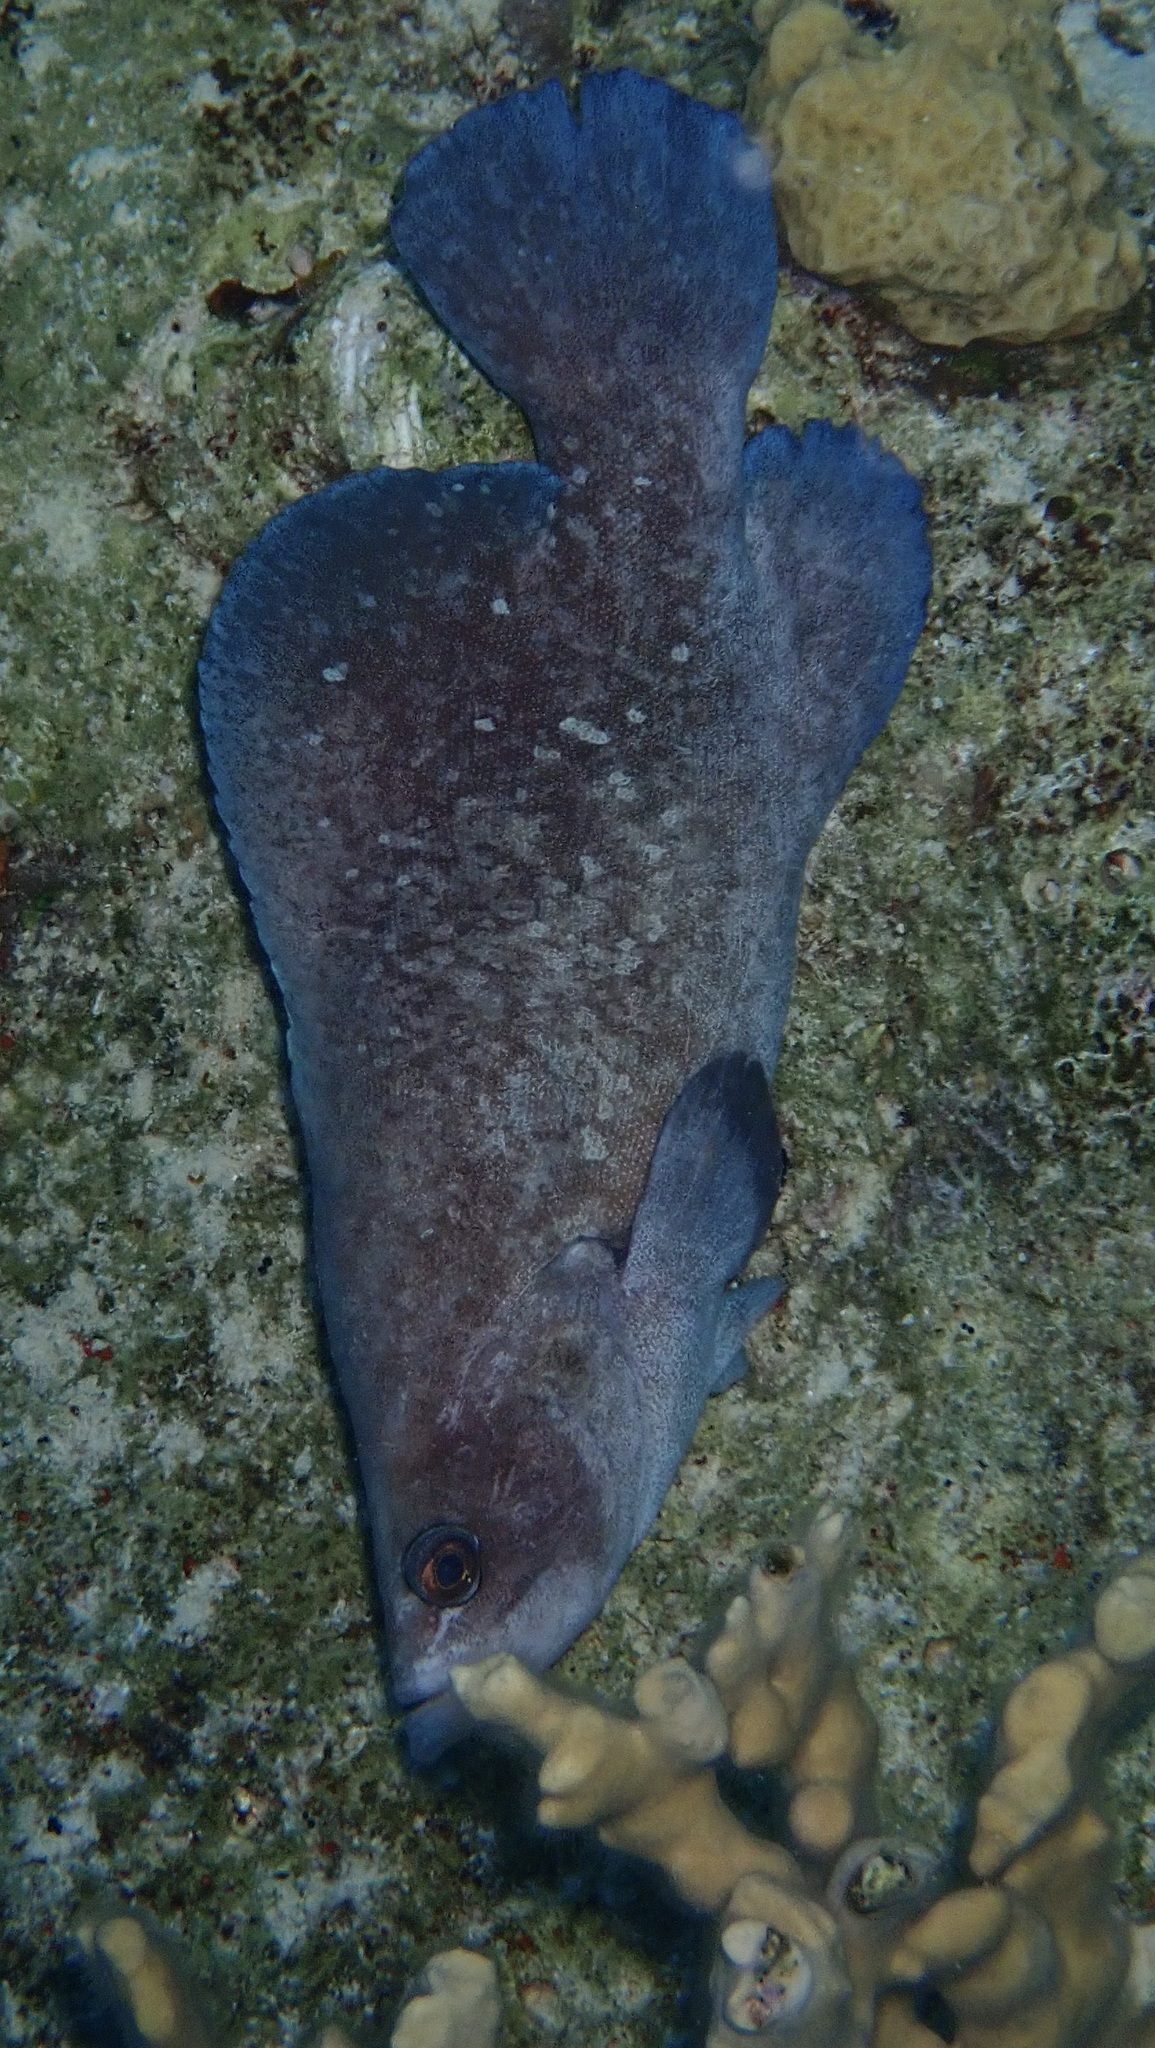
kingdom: Animalia
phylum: Chordata
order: Perciformes
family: Serranidae
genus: Rypticus
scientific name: Rypticus saponaceus
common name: Soapfish
